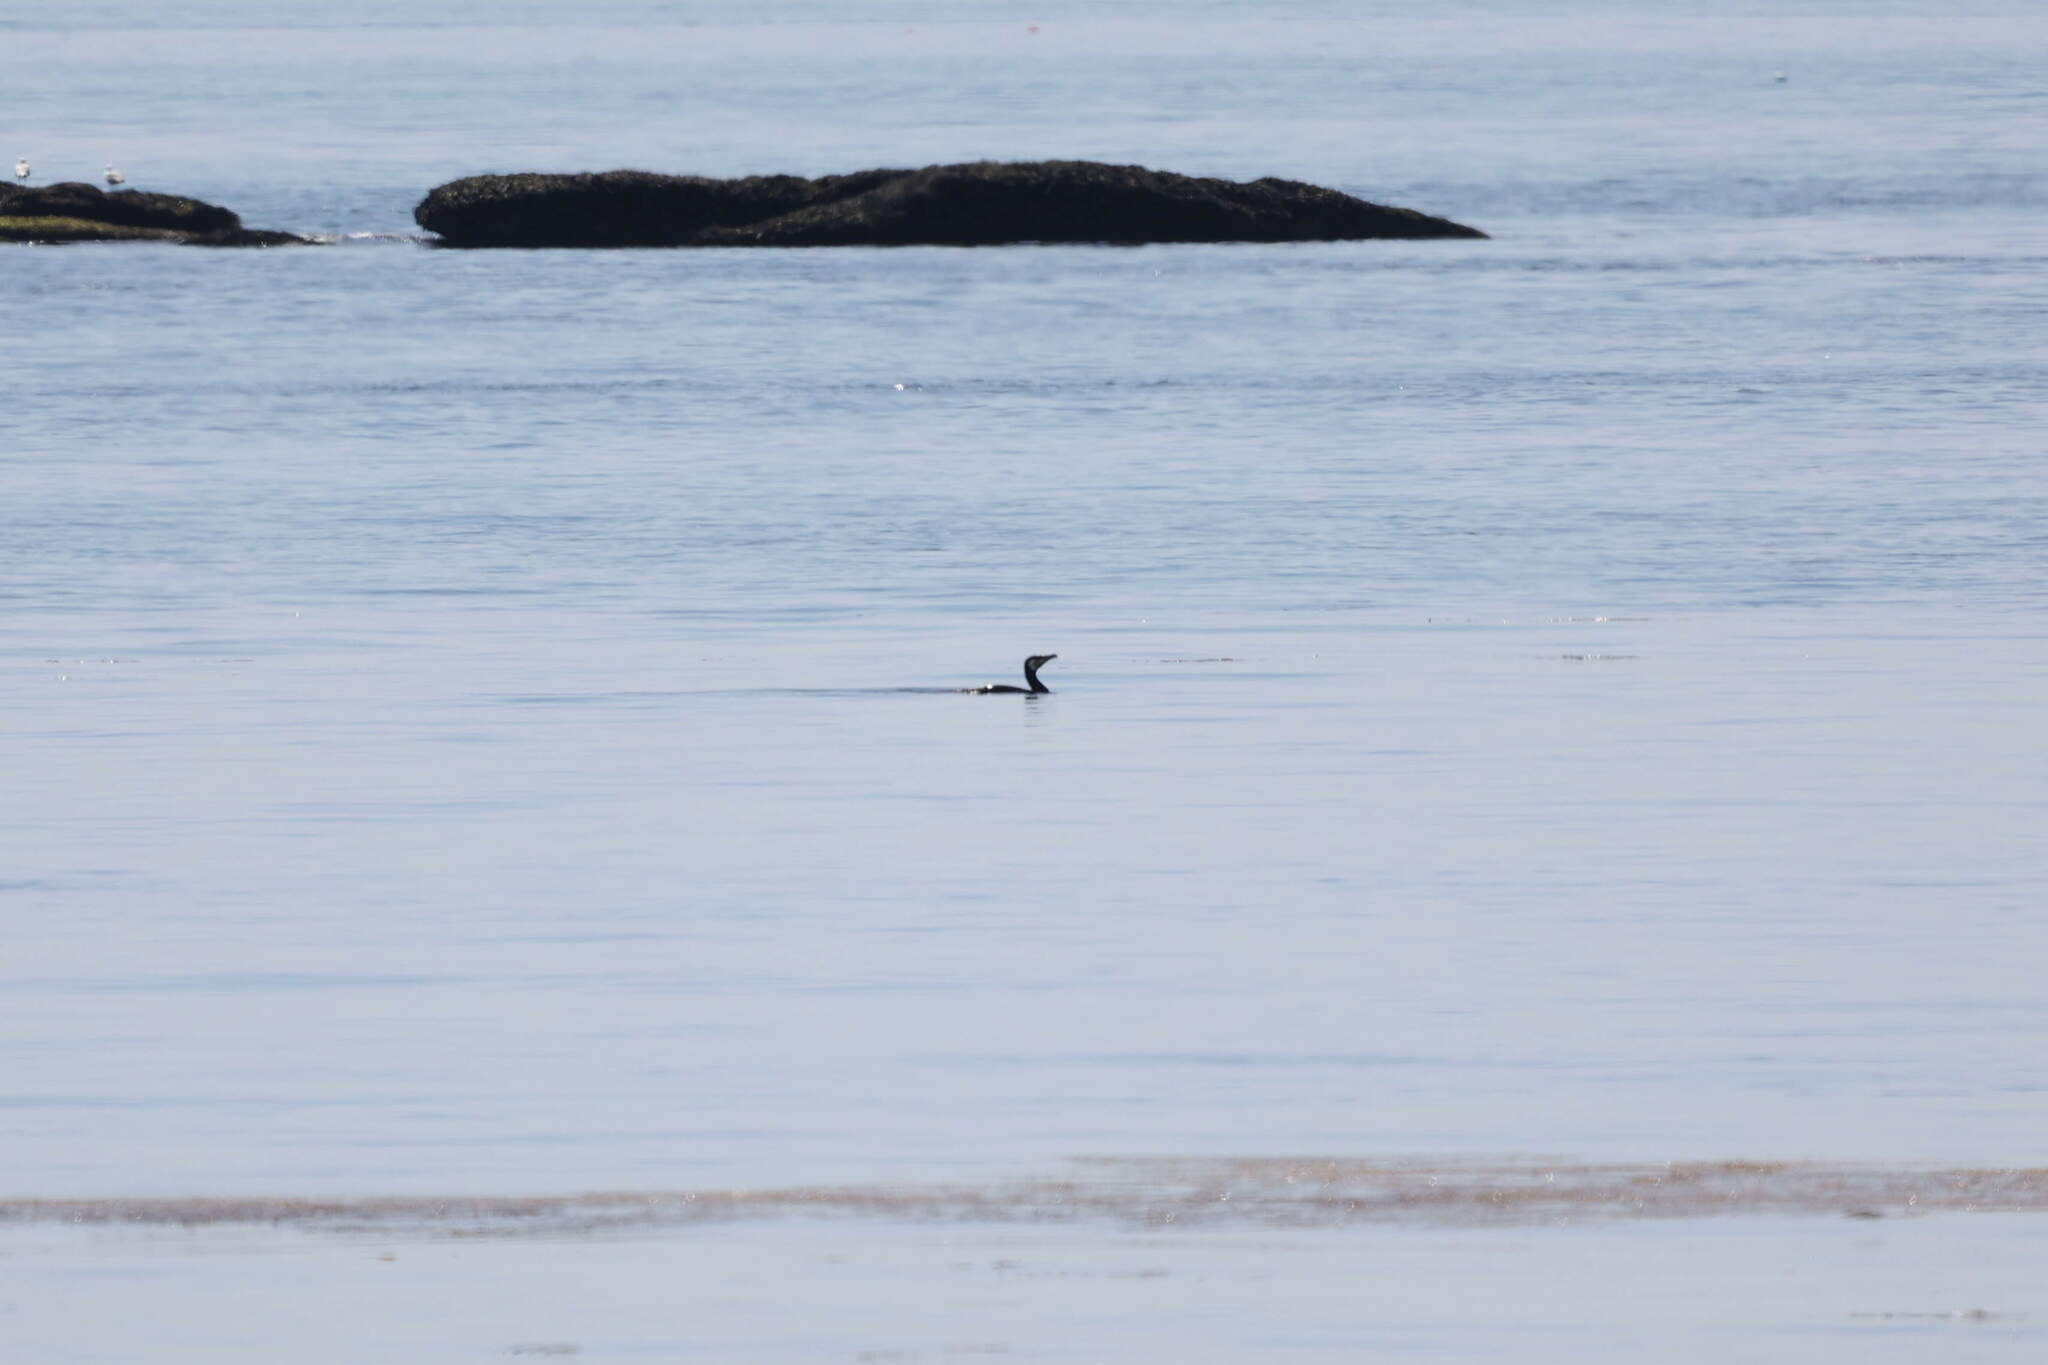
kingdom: Animalia
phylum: Chordata
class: Aves
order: Suliformes
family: Phalacrocoracidae
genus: Phalacrocorax
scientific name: Phalacrocorax carbo
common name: Great cormorant
